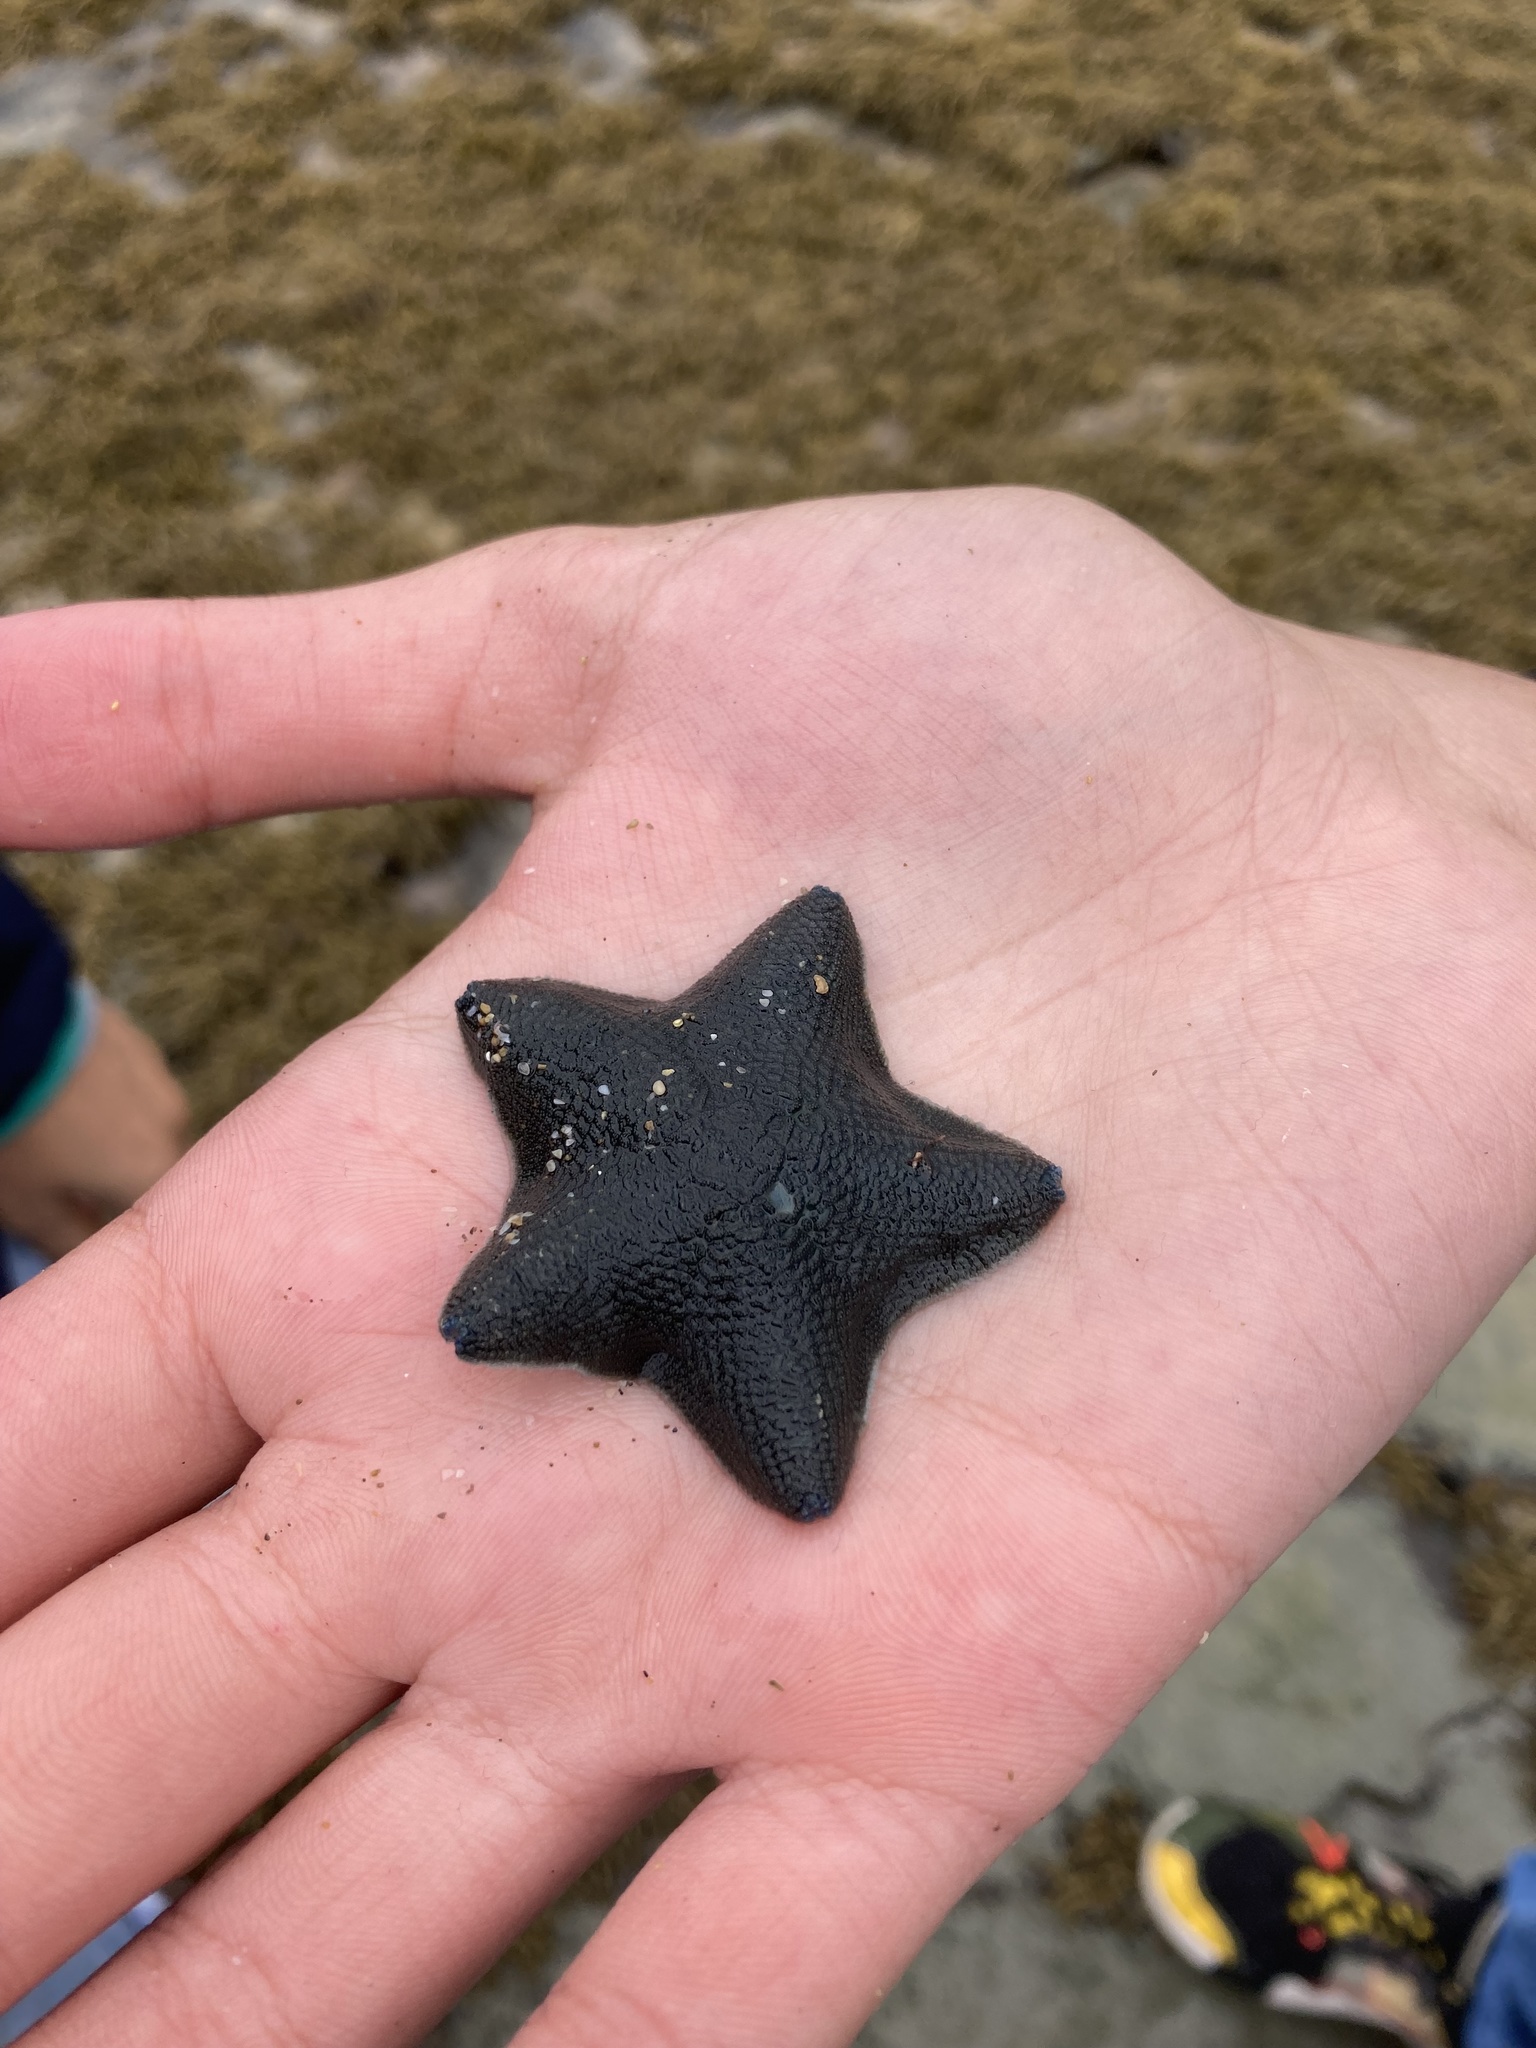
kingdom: Animalia
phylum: Echinodermata
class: Asteroidea
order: Valvatida
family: Asterinidae
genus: Patiriella
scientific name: Patiriella regularis
